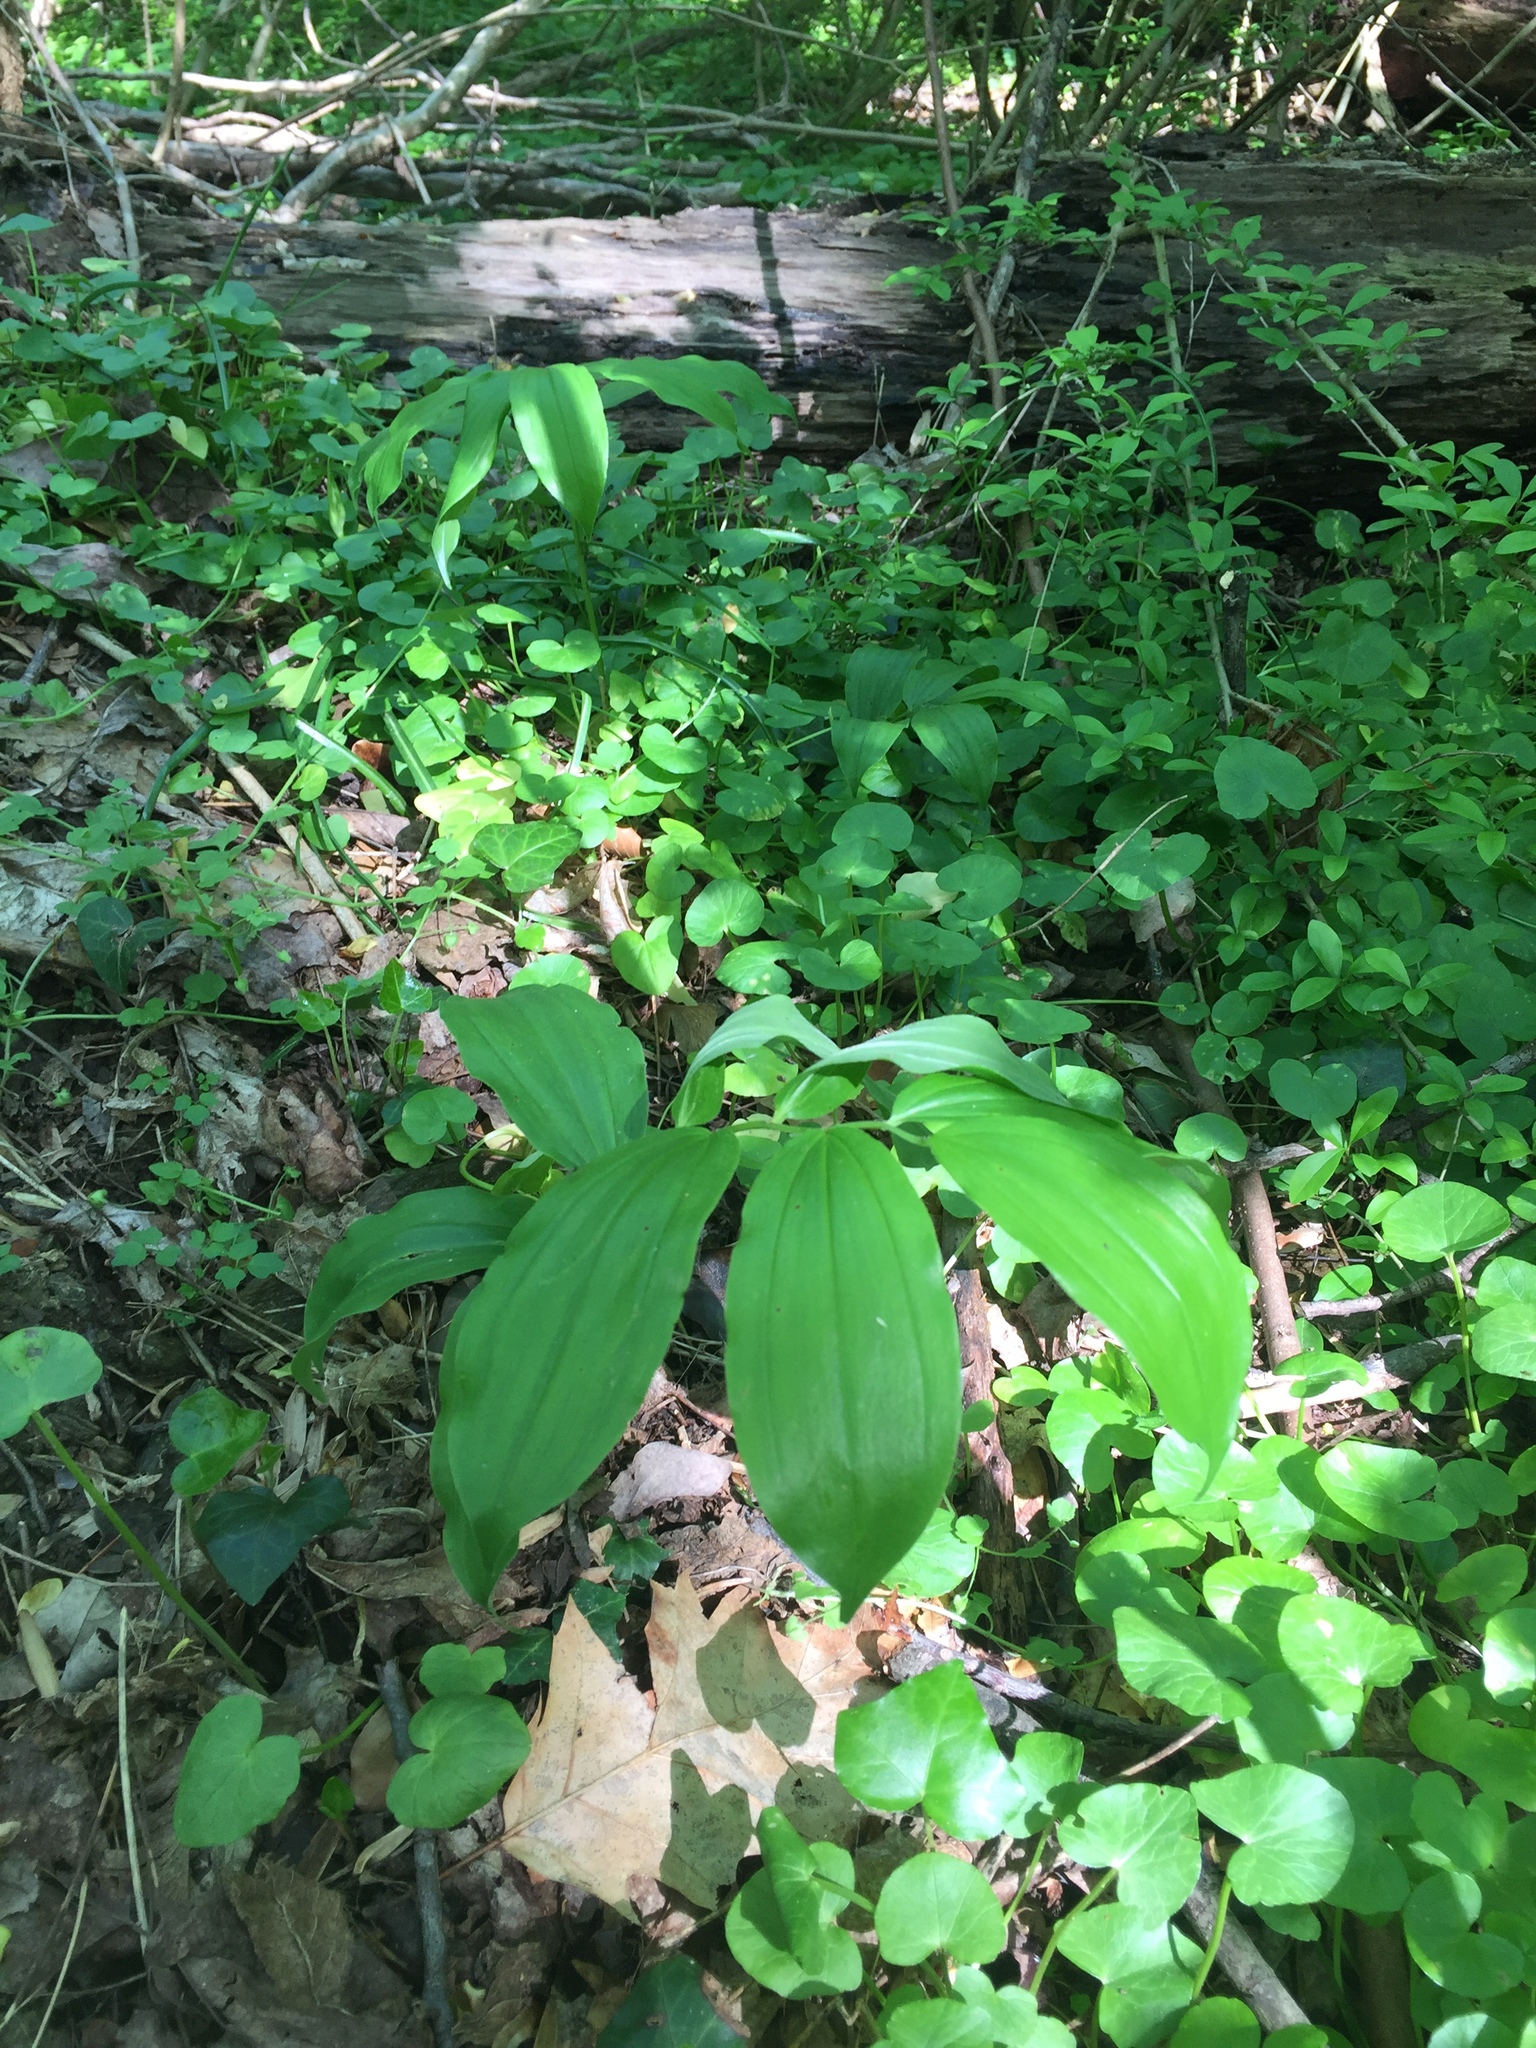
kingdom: Plantae
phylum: Tracheophyta
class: Liliopsida
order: Asparagales
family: Asparagaceae
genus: Maianthemum
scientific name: Maianthemum racemosum
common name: False spikenard
